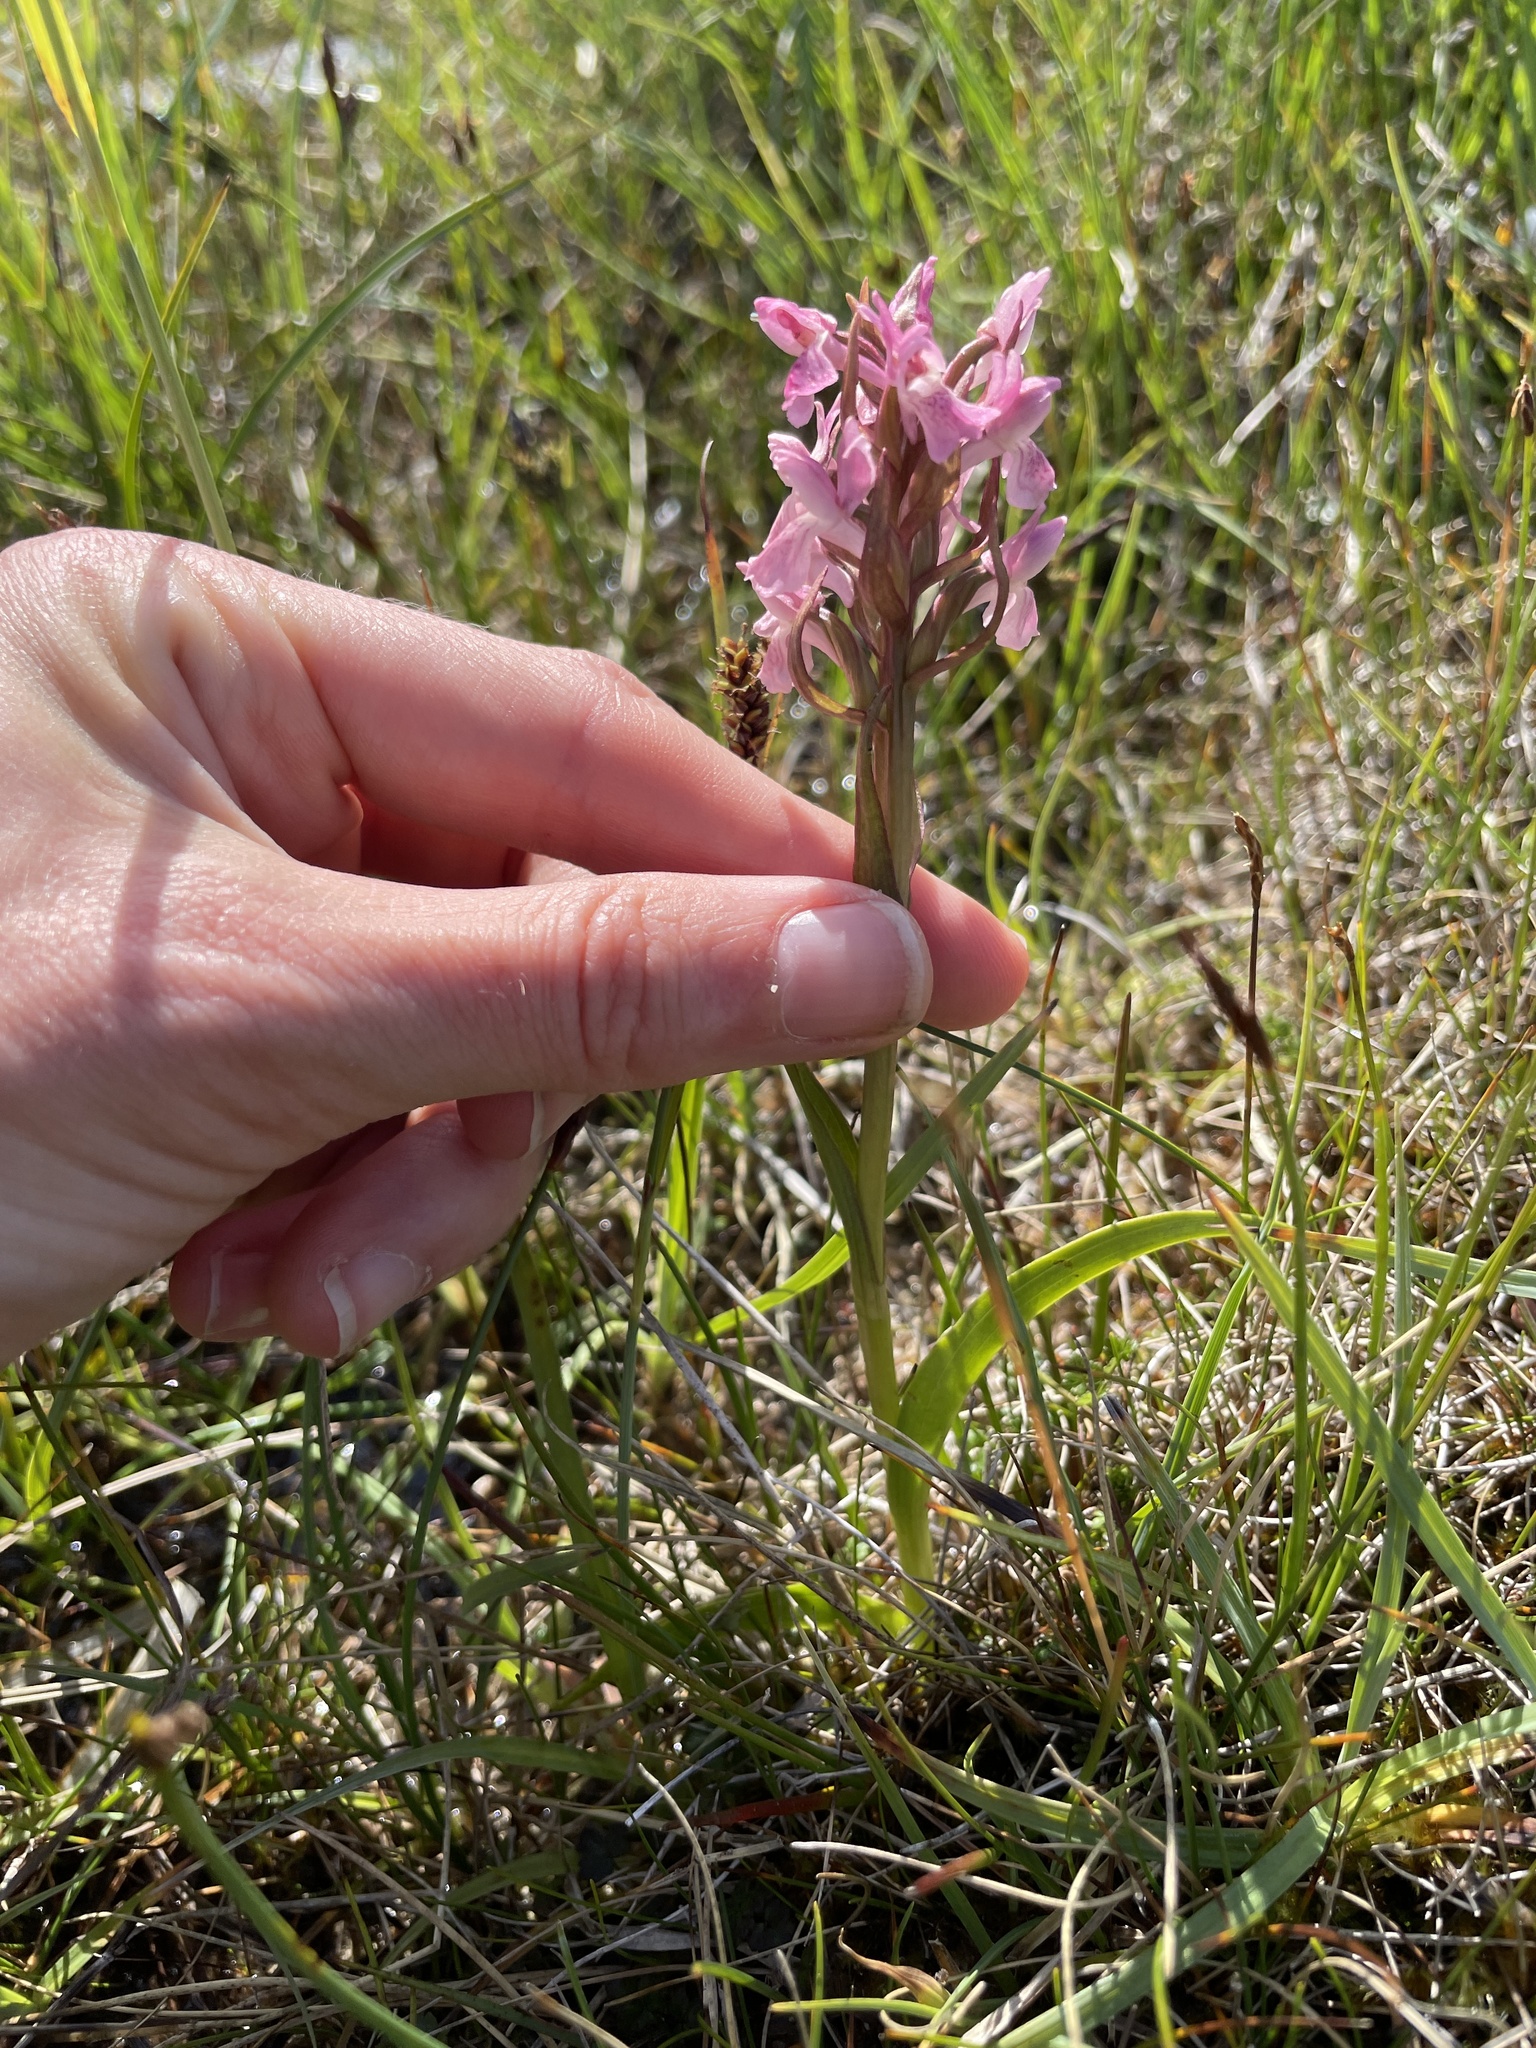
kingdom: Plantae
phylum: Tracheophyta
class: Liliopsida
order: Asparagales
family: Orchidaceae
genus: Dactylorhiza
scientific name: Dactylorhiza incarnata
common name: Early marsh-orchid
